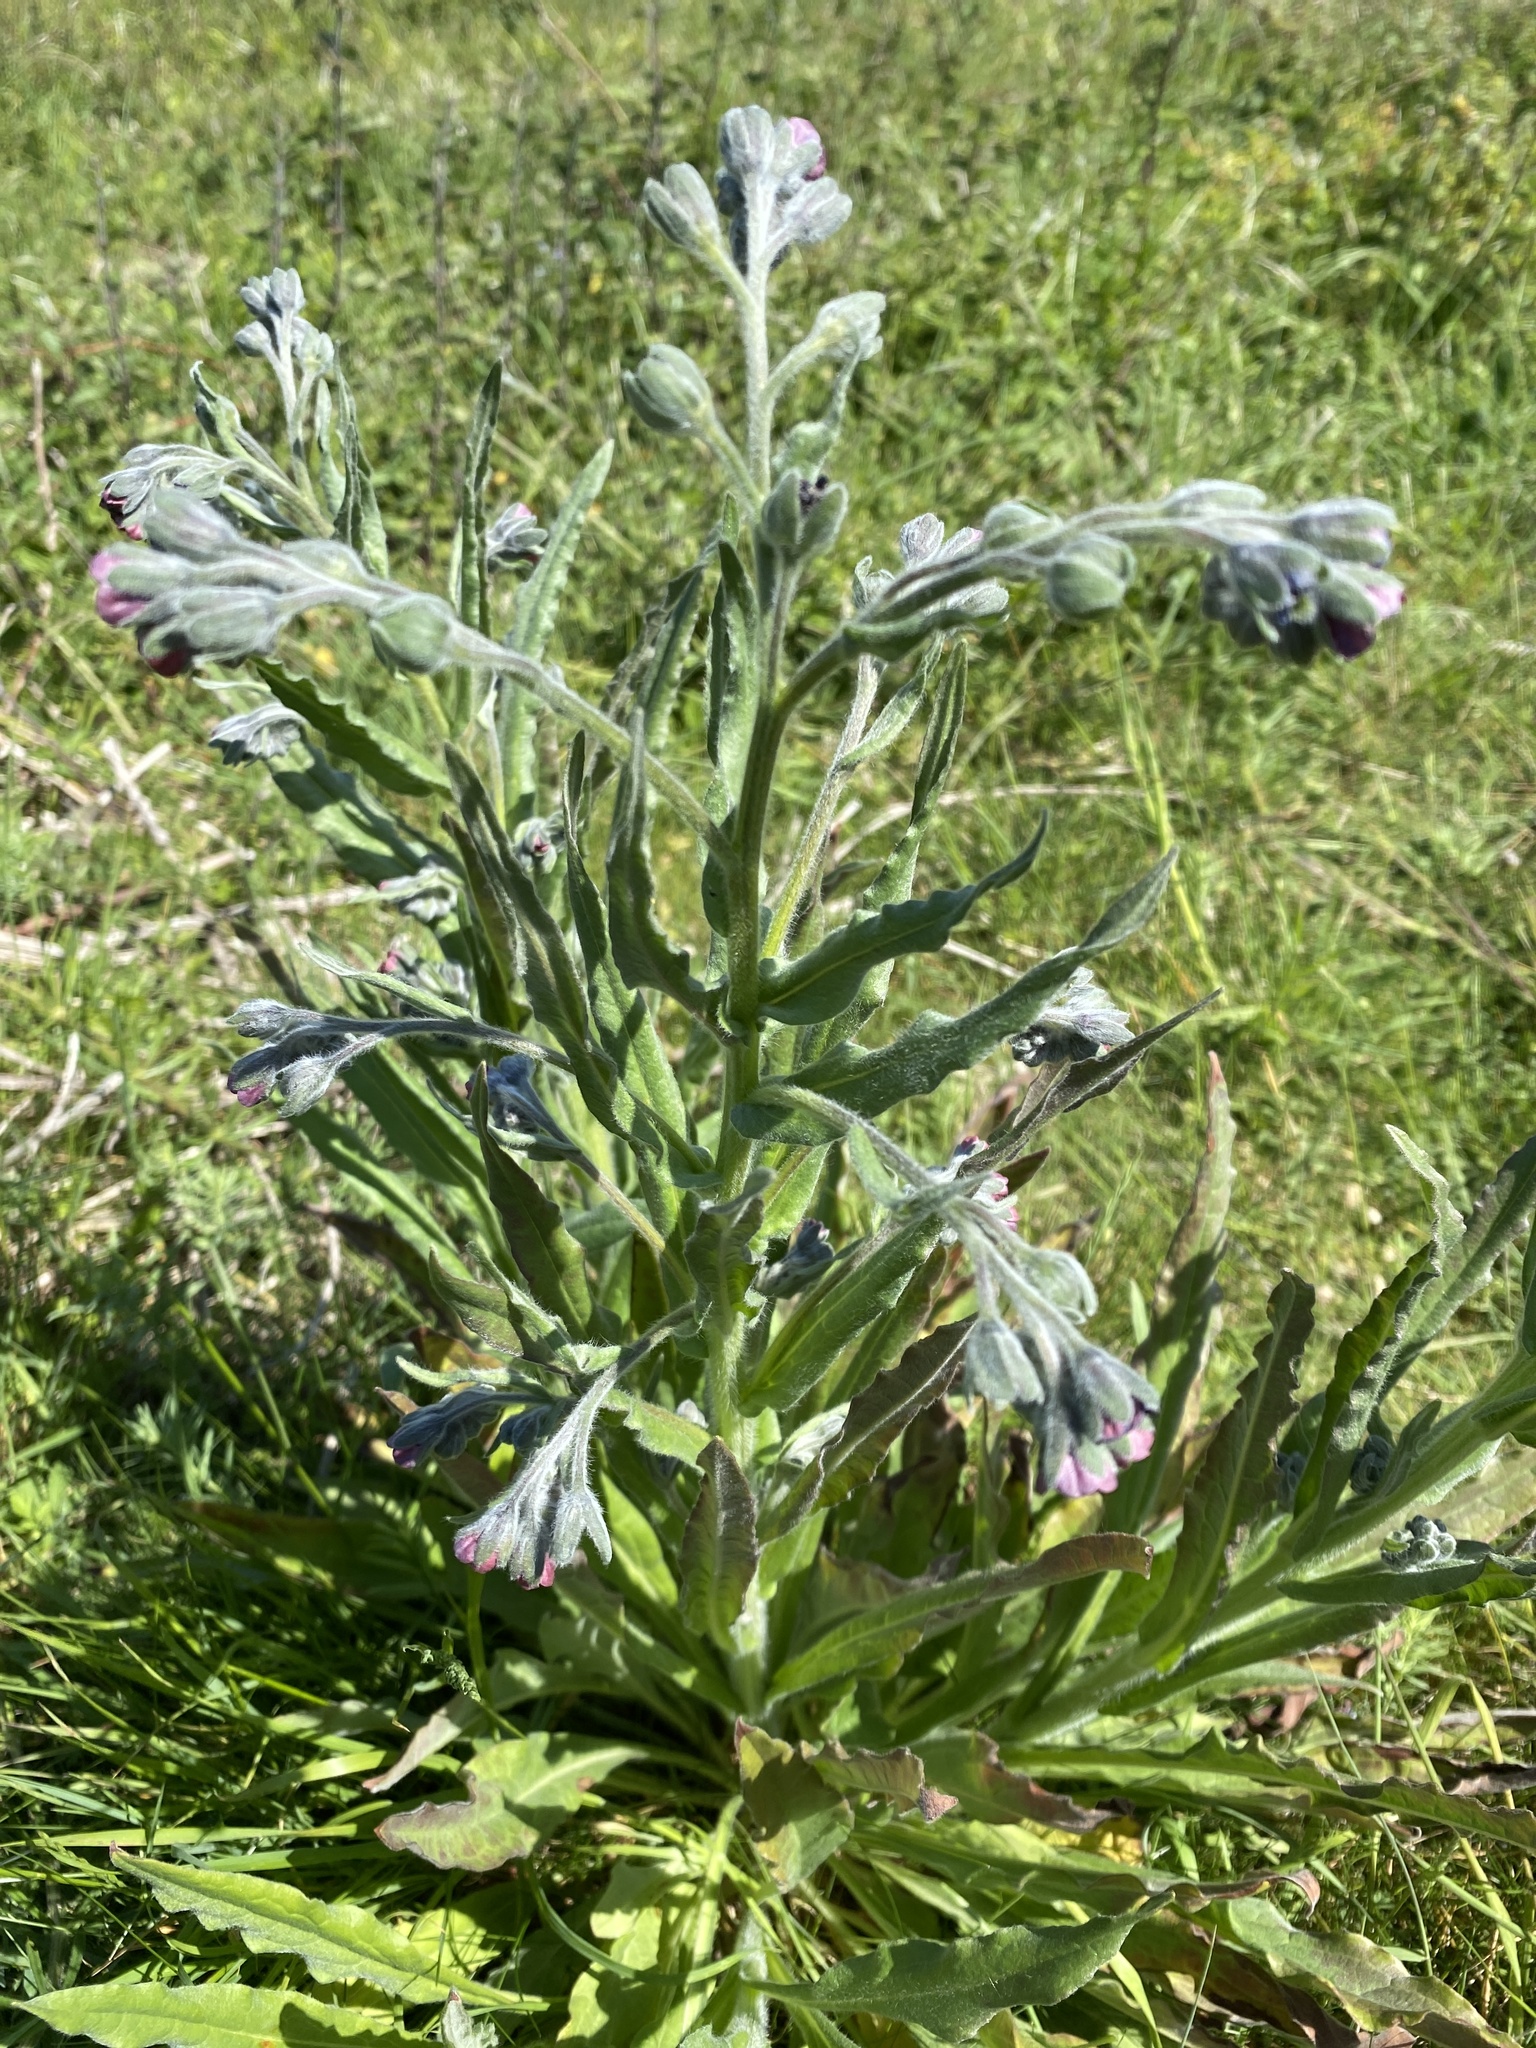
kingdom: Plantae
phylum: Tracheophyta
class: Magnoliopsida
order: Boraginales
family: Boraginaceae
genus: Cynoglossum
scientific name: Cynoglossum officinale
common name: Hound's-tongue
